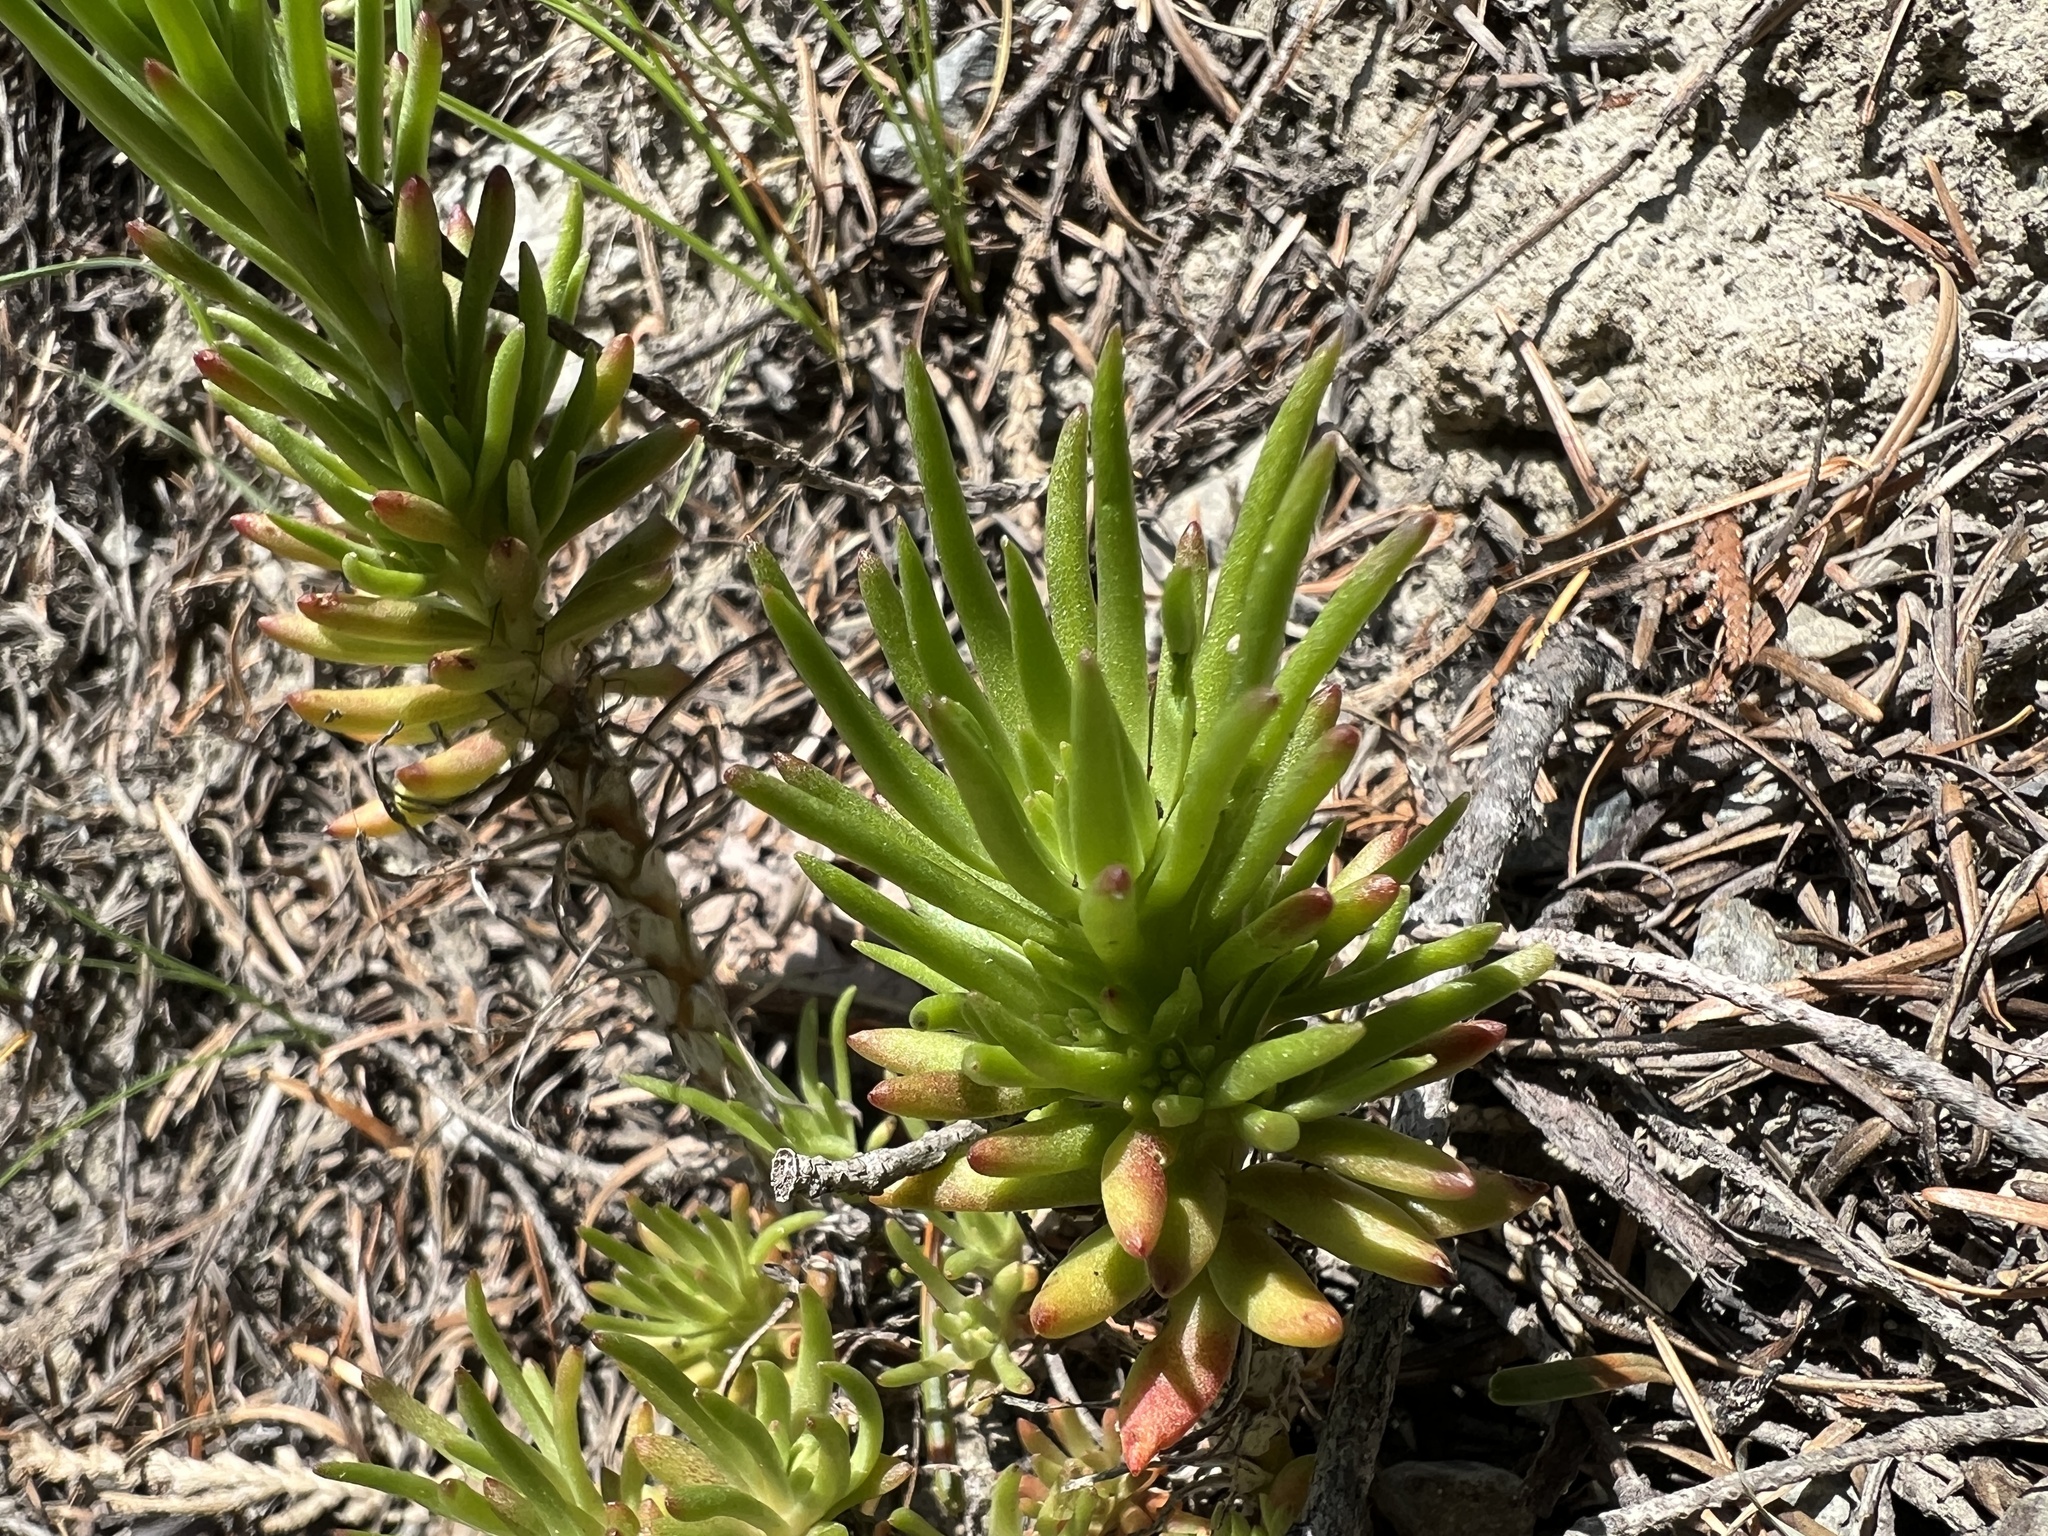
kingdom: Plantae
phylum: Tracheophyta
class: Magnoliopsida
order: Saxifragales
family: Crassulaceae
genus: Sedum
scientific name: Sedum stenopetalum
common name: Narrow-petaled stonecrop
